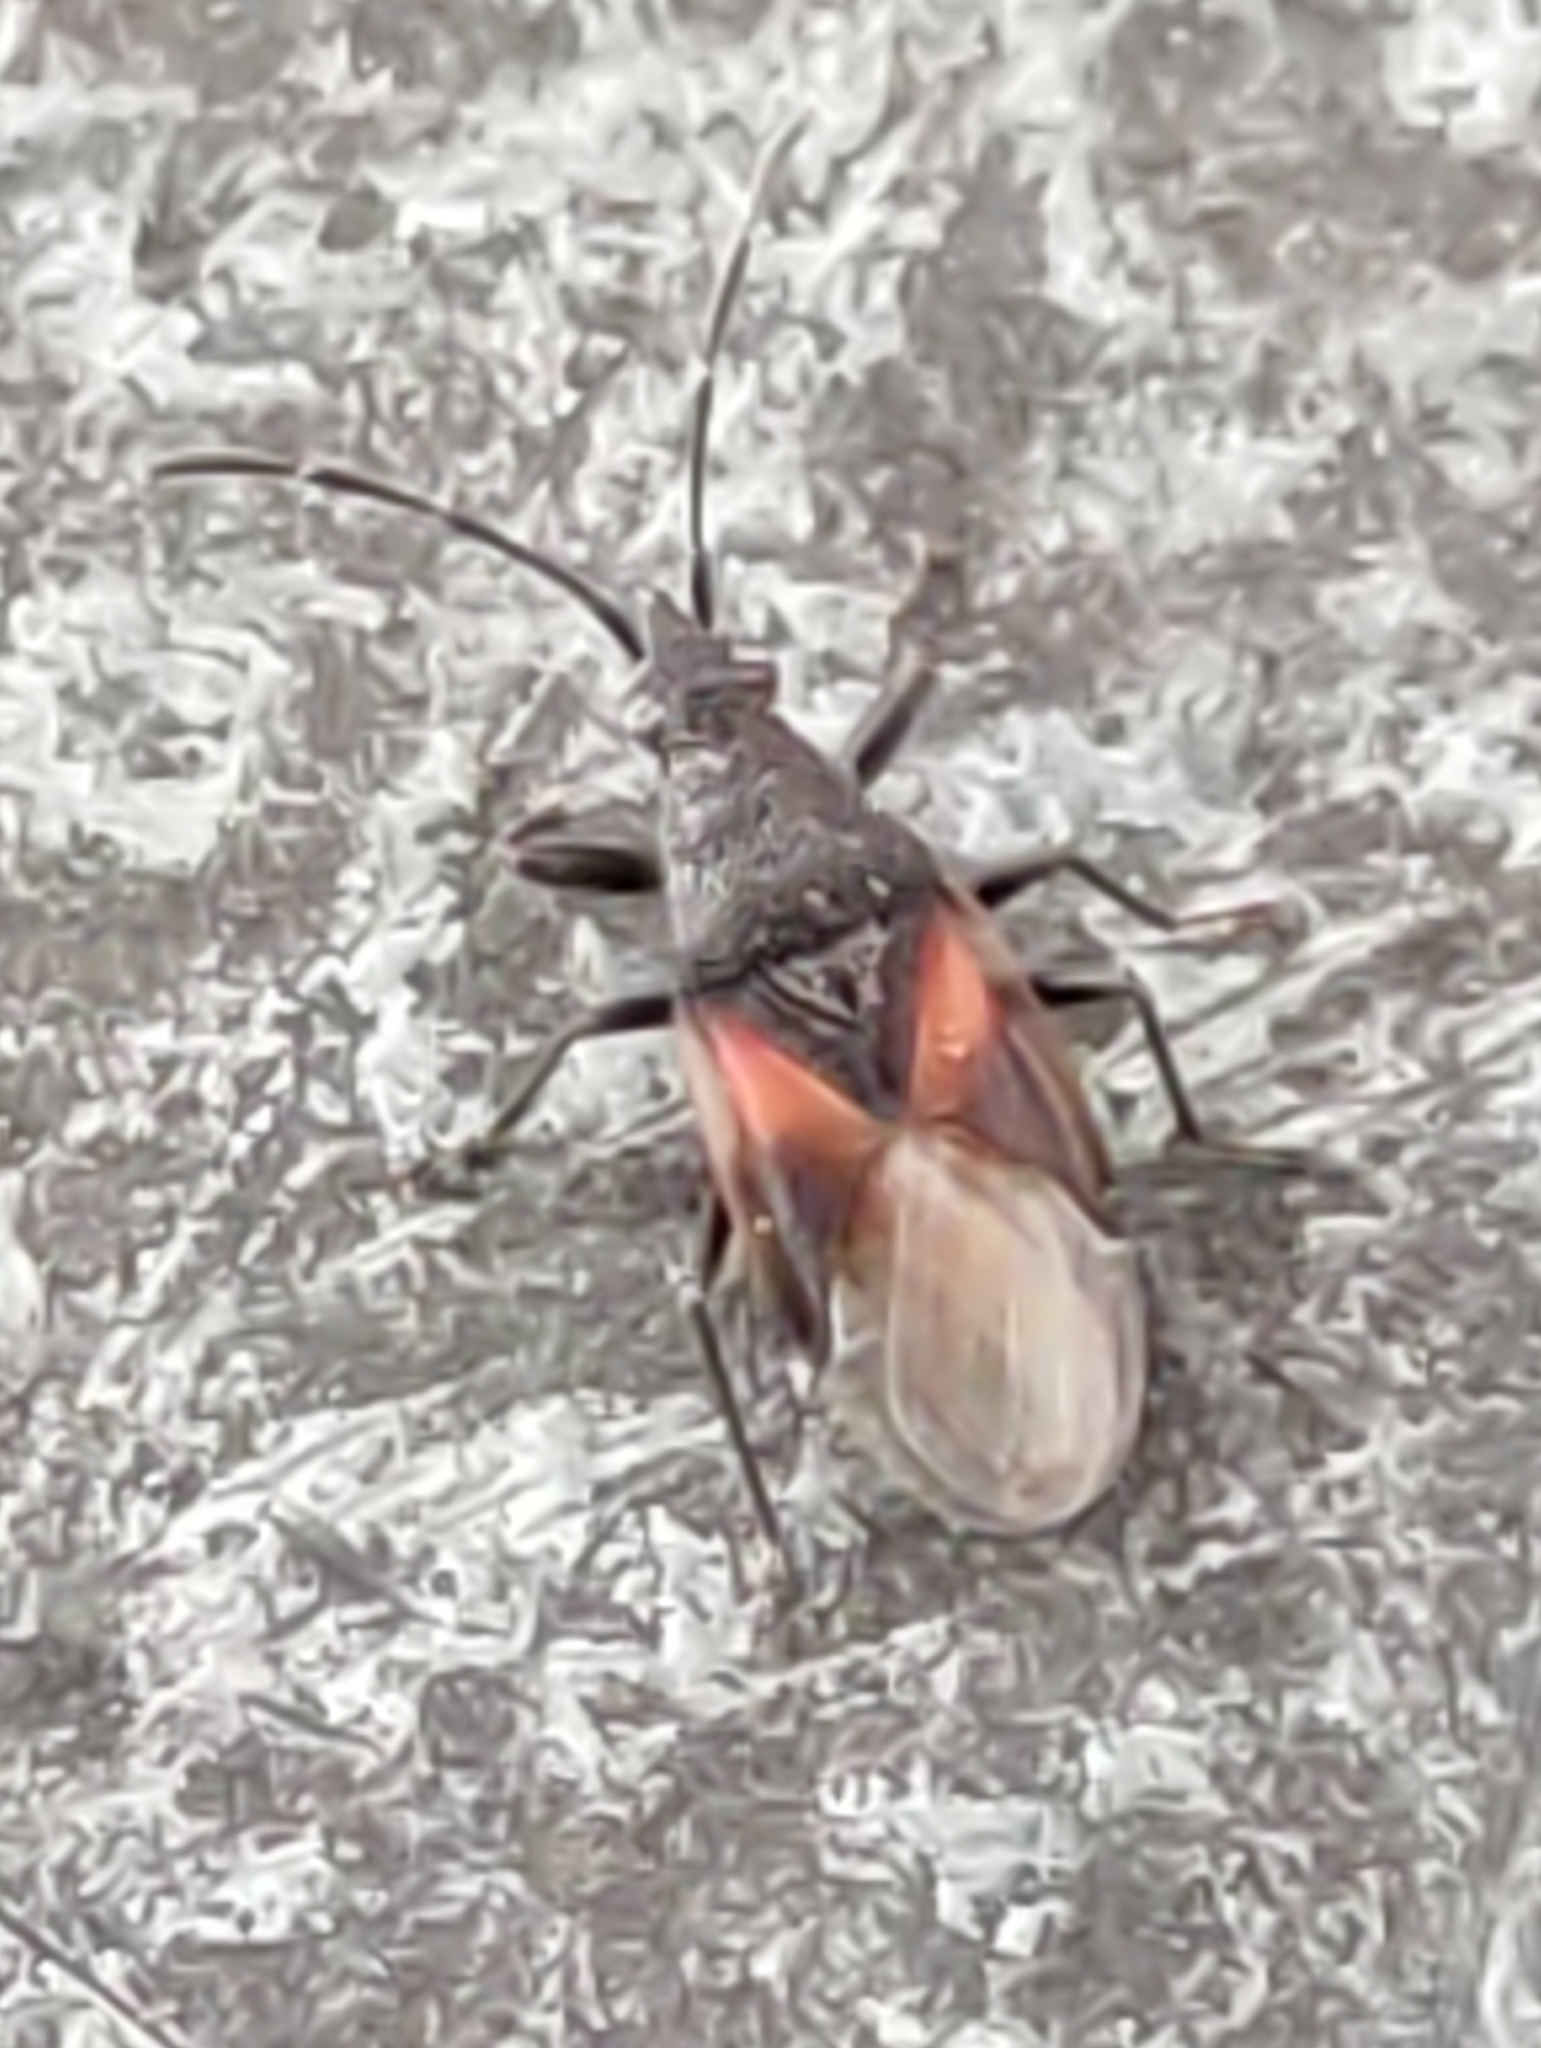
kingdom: Animalia
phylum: Arthropoda
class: Insecta
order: Hemiptera
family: Oxycarenidae
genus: Oxycarenus
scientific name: Oxycarenus lavaterae
